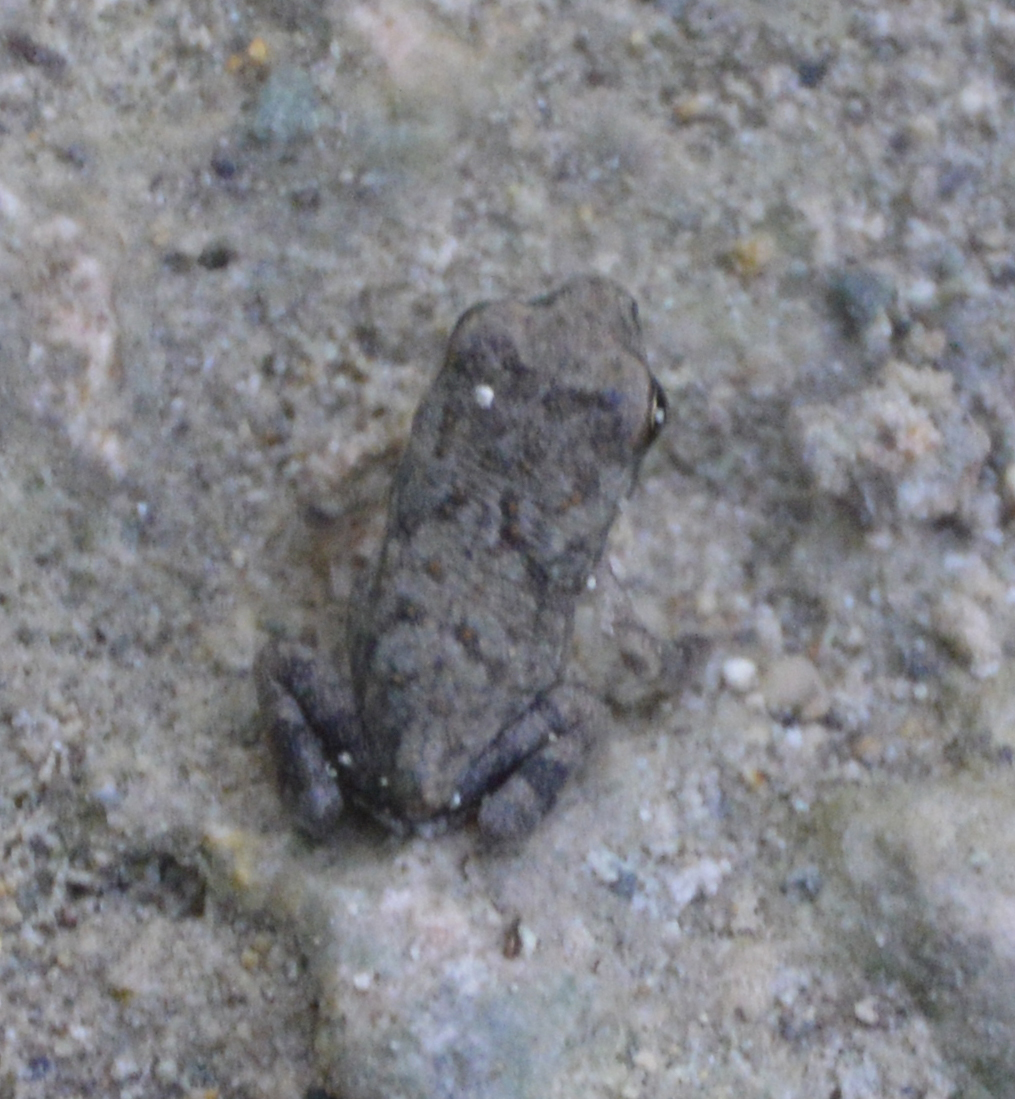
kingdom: Animalia
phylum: Chordata
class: Amphibia
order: Anura
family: Bufonidae
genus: Incilius
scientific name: Incilius nebulifer
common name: Gulf coast toad
